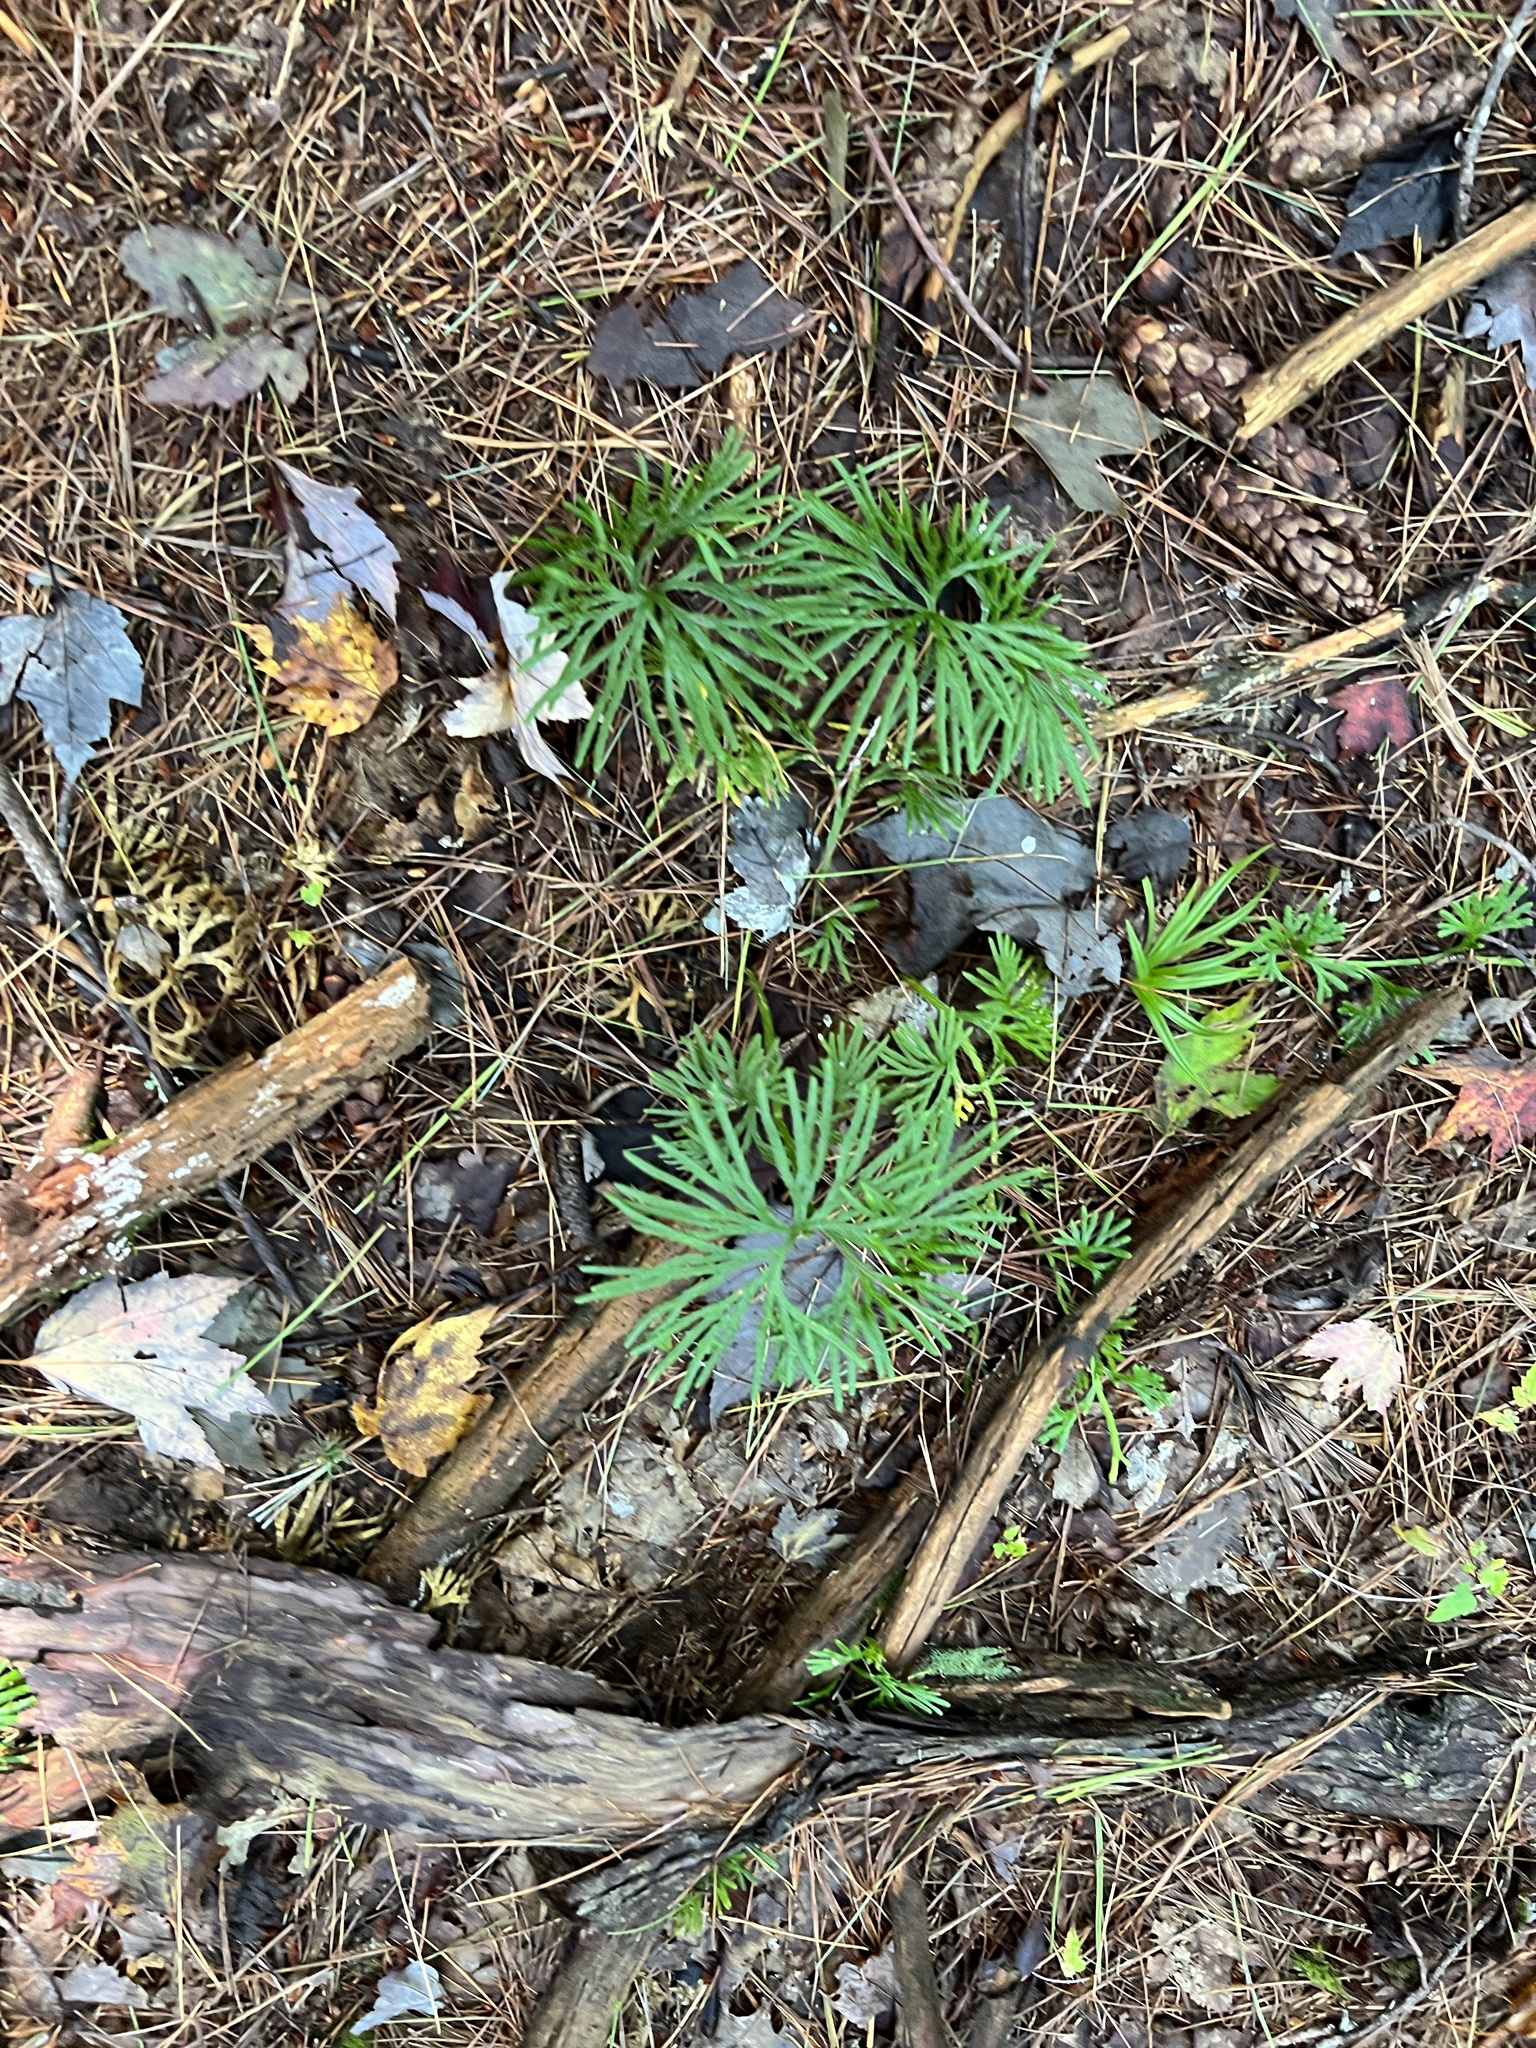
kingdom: Plantae
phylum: Tracheophyta
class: Lycopodiopsida
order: Lycopodiales
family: Lycopodiaceae
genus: Diphasiastrum
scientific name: Diphasiastrum digitatum
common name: Southern running-pine
